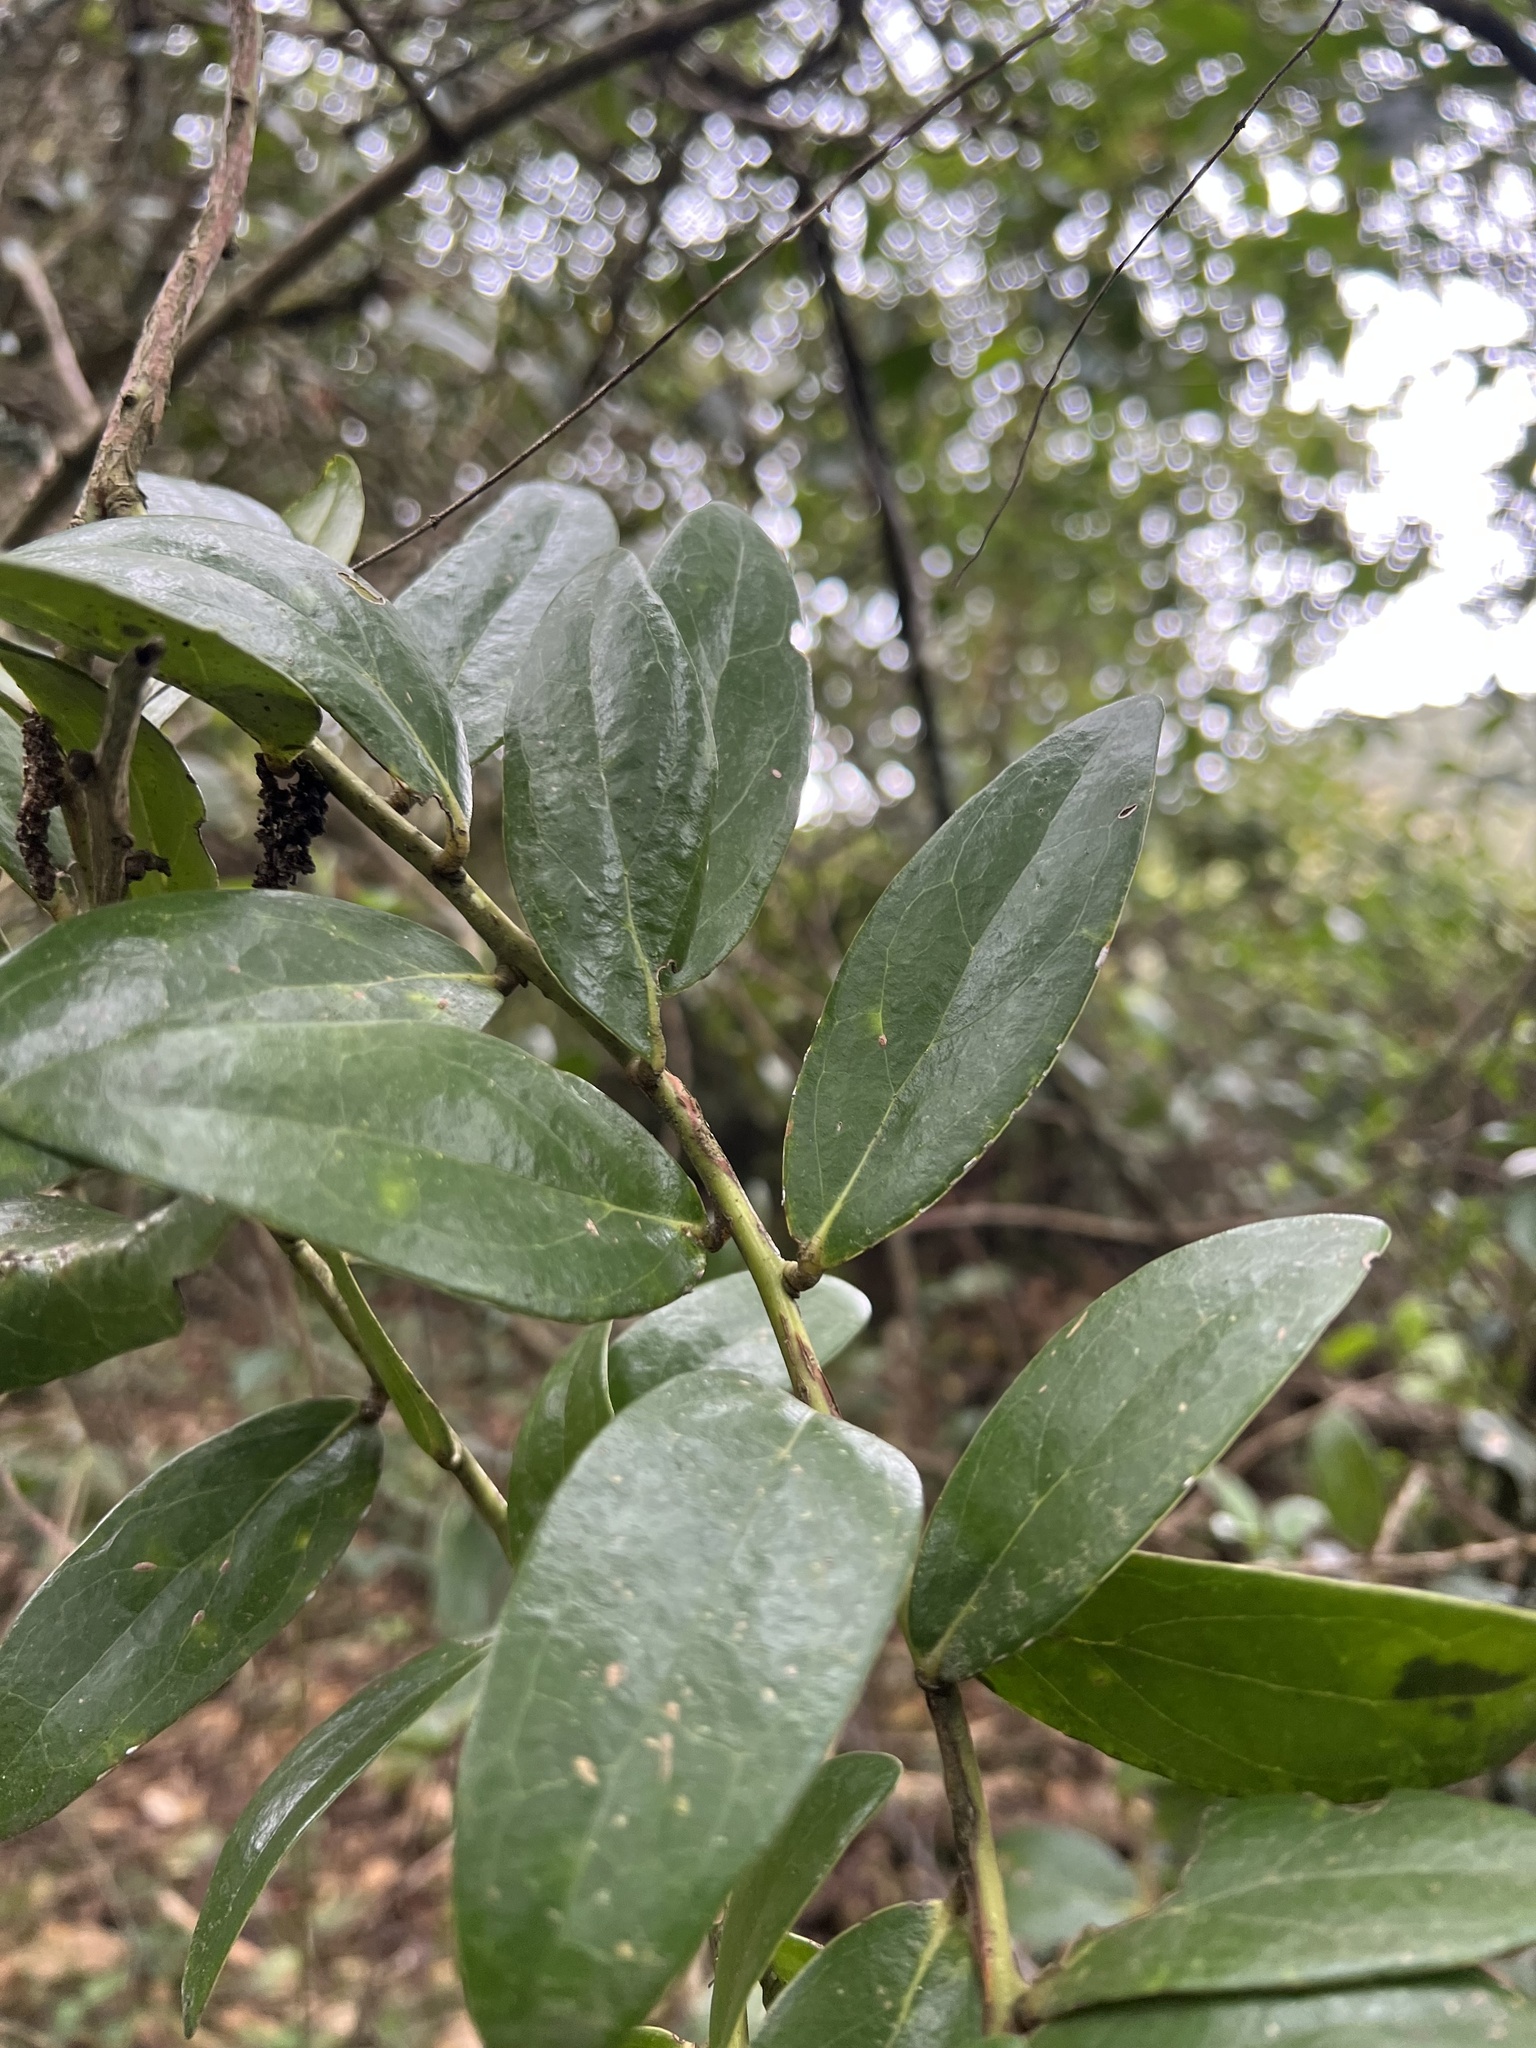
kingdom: Plantae
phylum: Tracheophyta
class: Magnoliopsida
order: Ericales
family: Ericaceae
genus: Macleania
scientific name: Macleania rupestris
